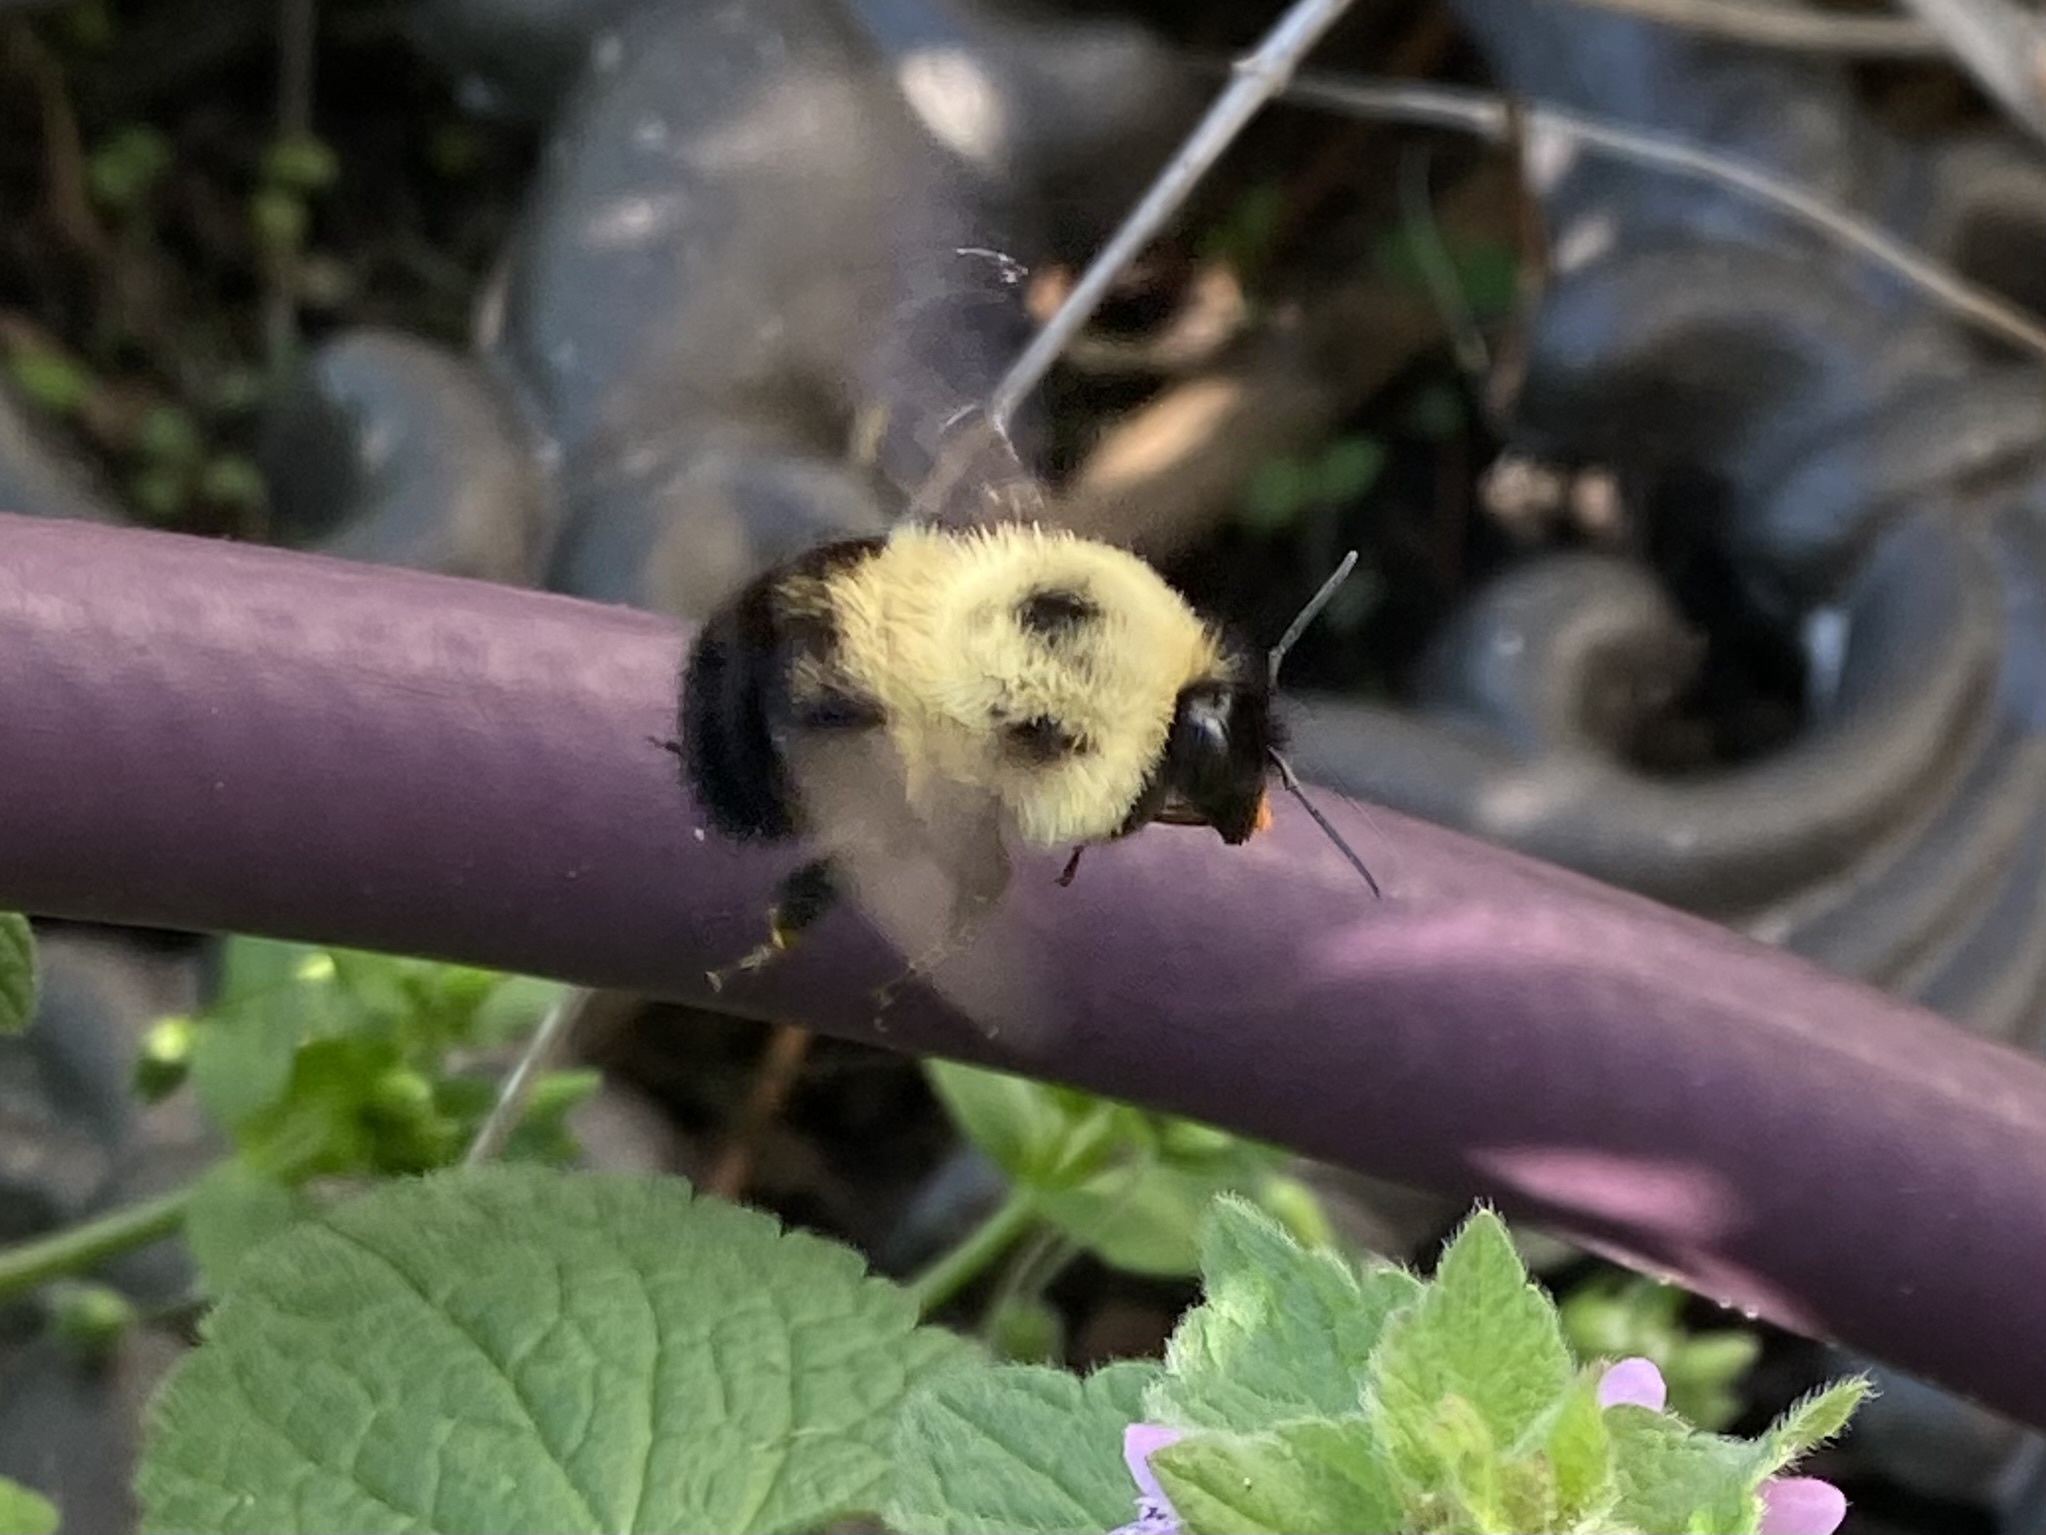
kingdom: Animalia
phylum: Arthropoda
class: Insecta
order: Hymenoptera
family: Apidae
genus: Bombus
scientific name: Bombus bimaculatus
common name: Two-spotted bumble bee
